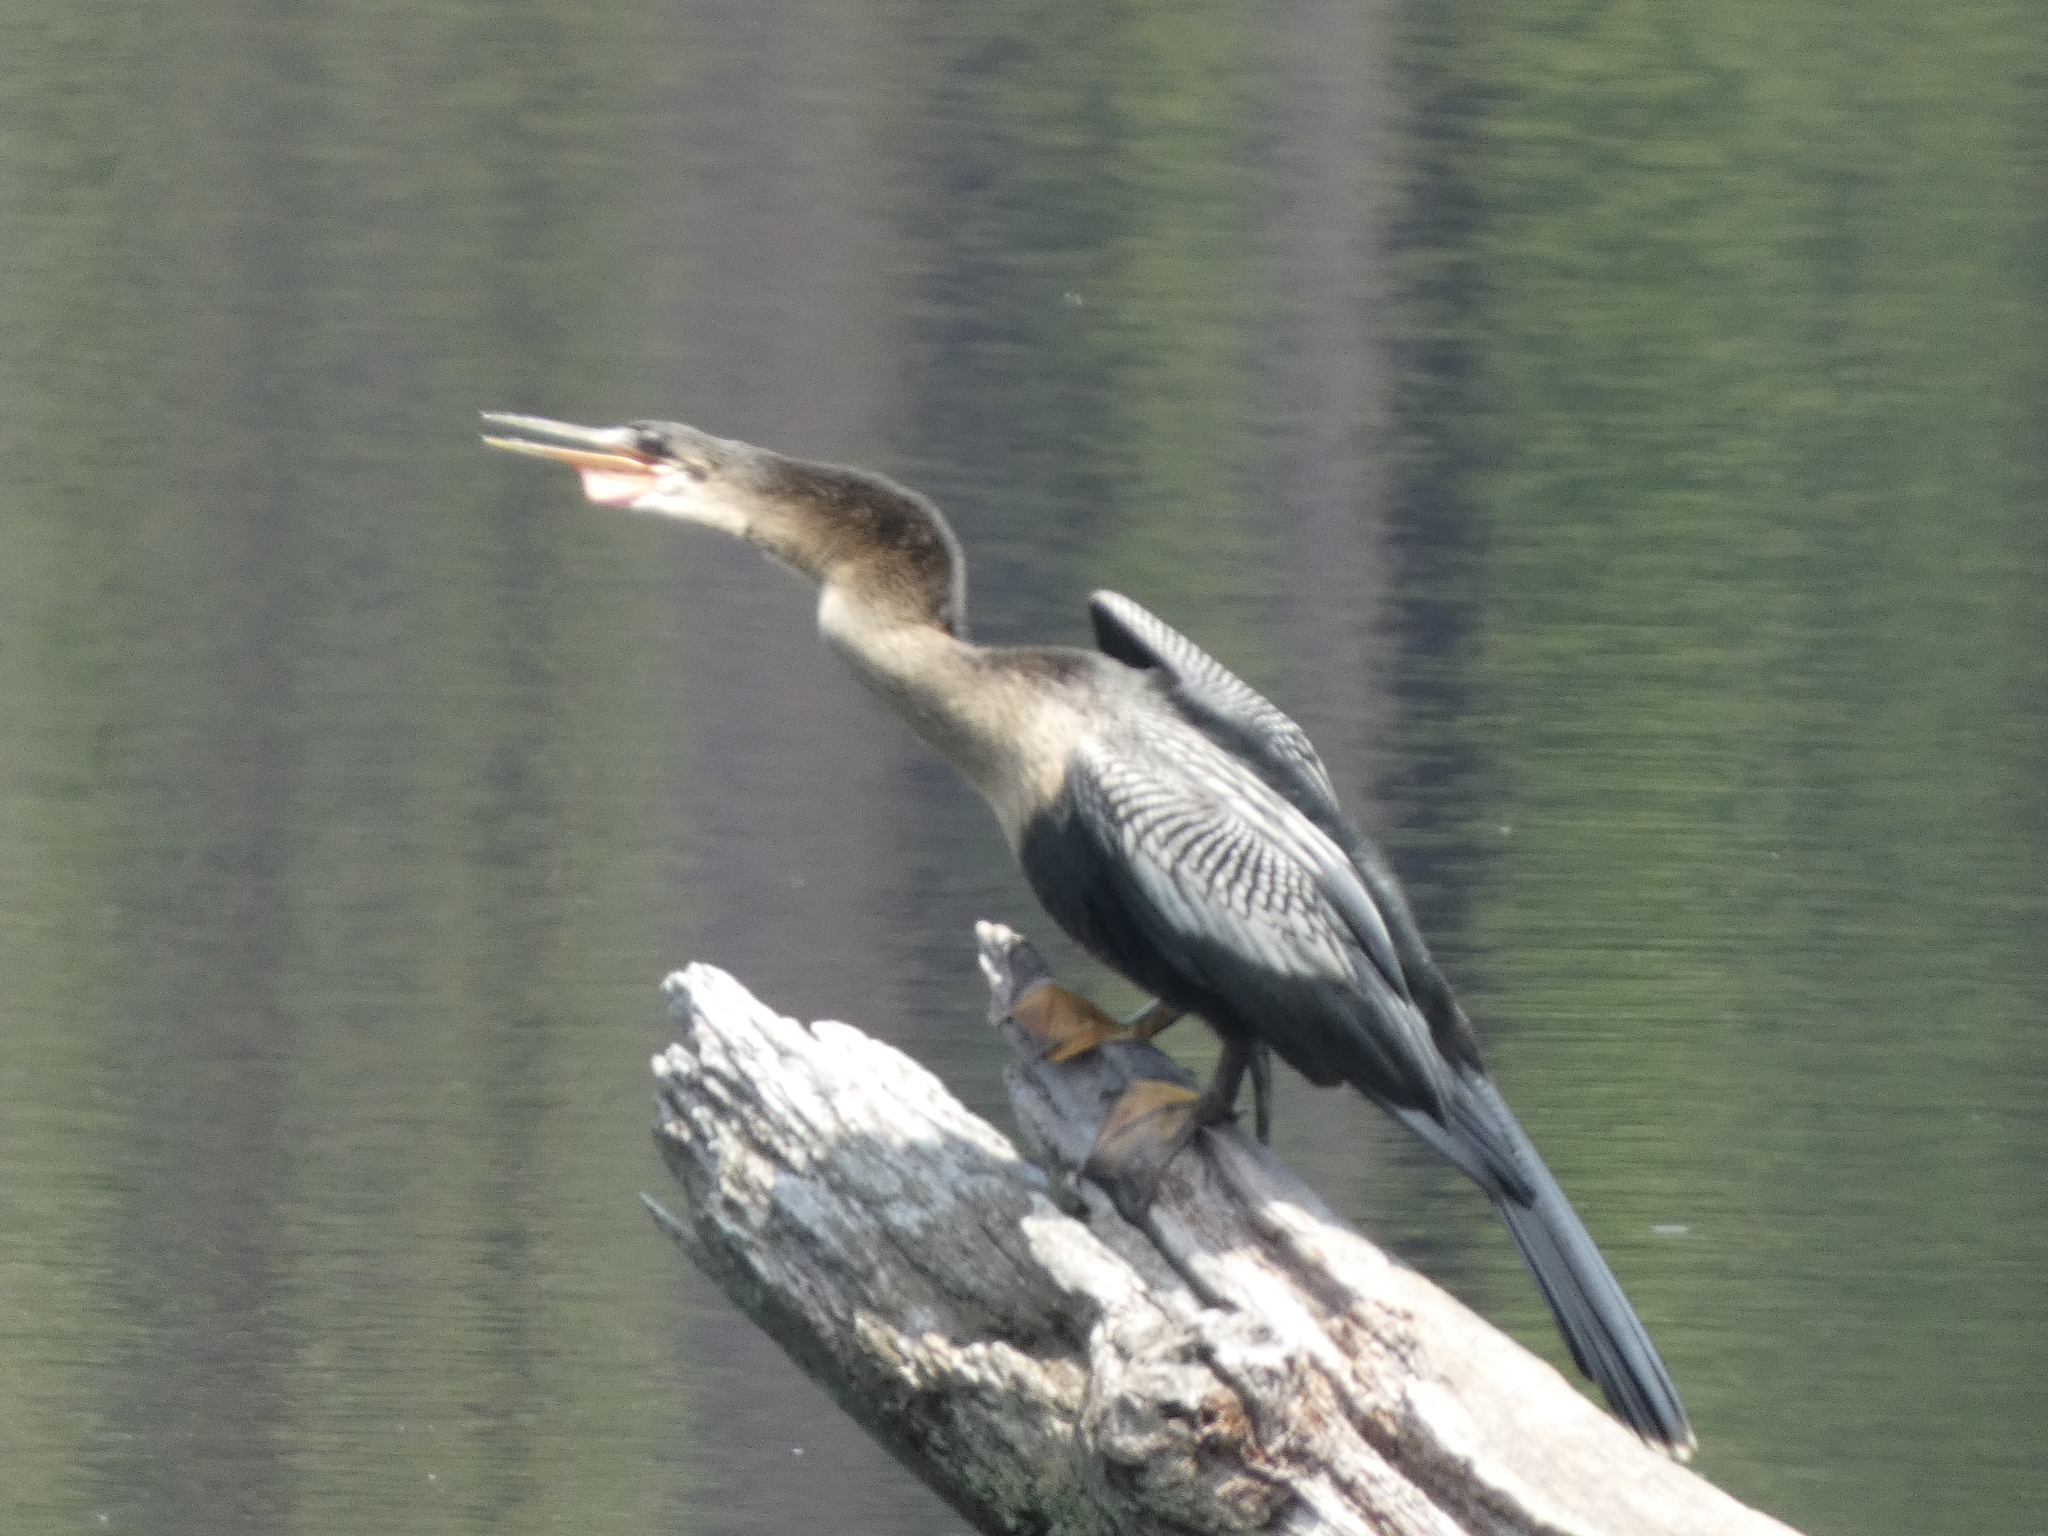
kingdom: Animalia
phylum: Chordata
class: Aves
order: Suliformes
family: Anhingidae
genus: Anhinga
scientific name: Anhinga anhinga
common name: Anhinga
